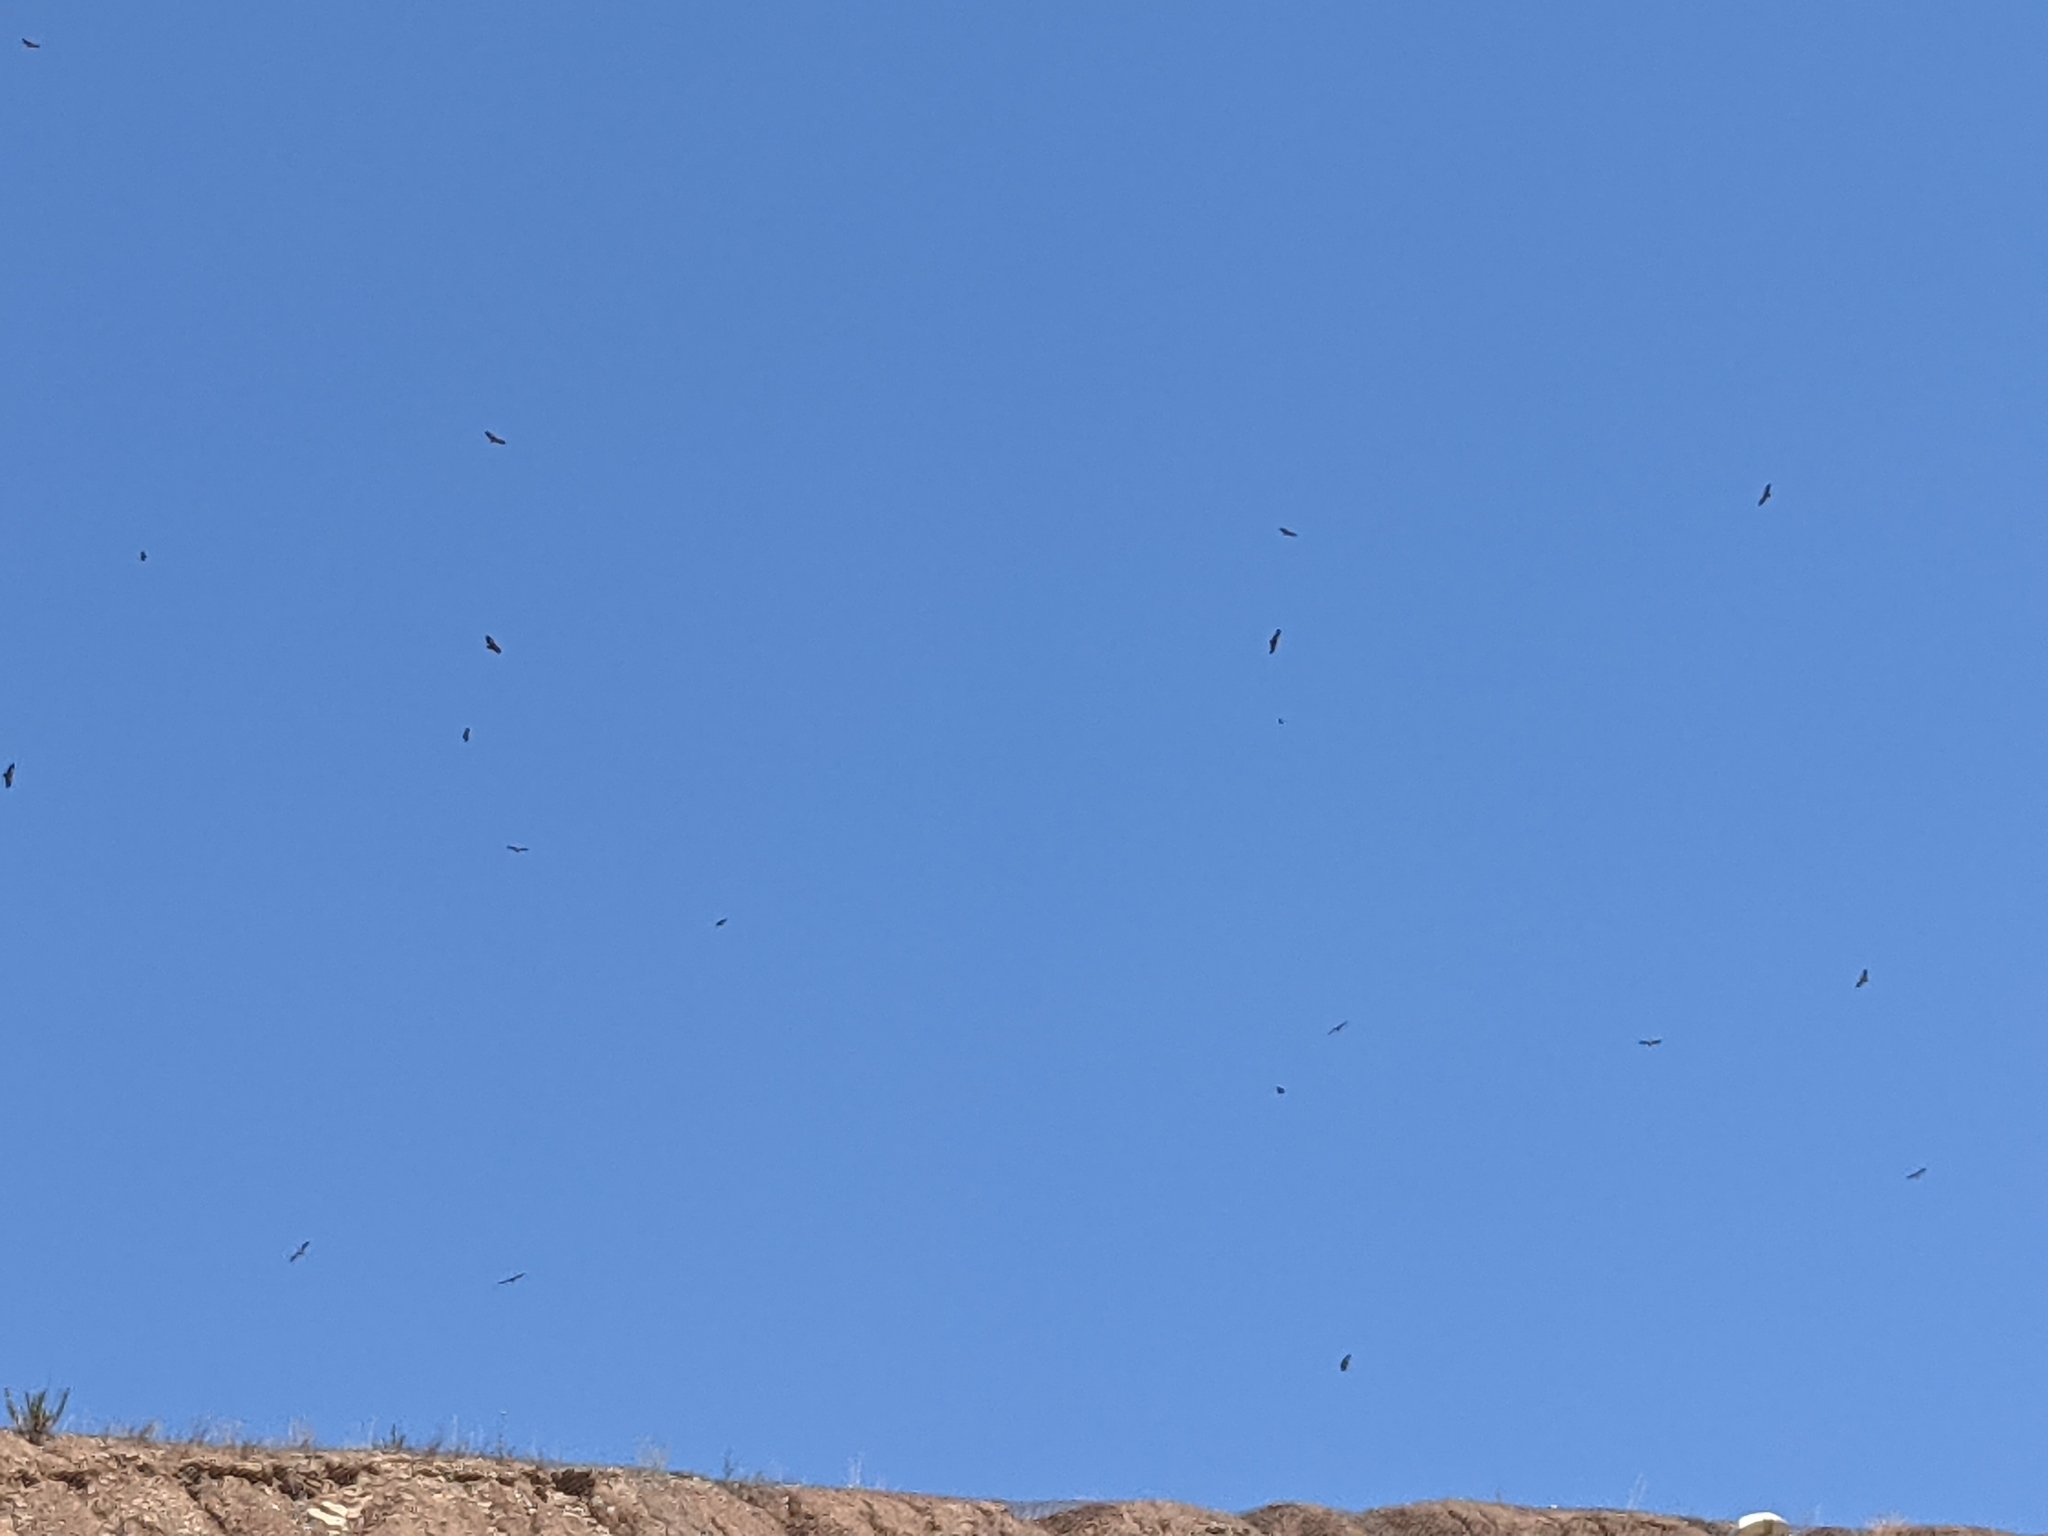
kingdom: Animalia
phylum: Chordata
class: Aves
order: Accipitriformes
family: Accipitridae
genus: Gyps
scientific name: Gyps fulvus
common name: Griffon vulture
